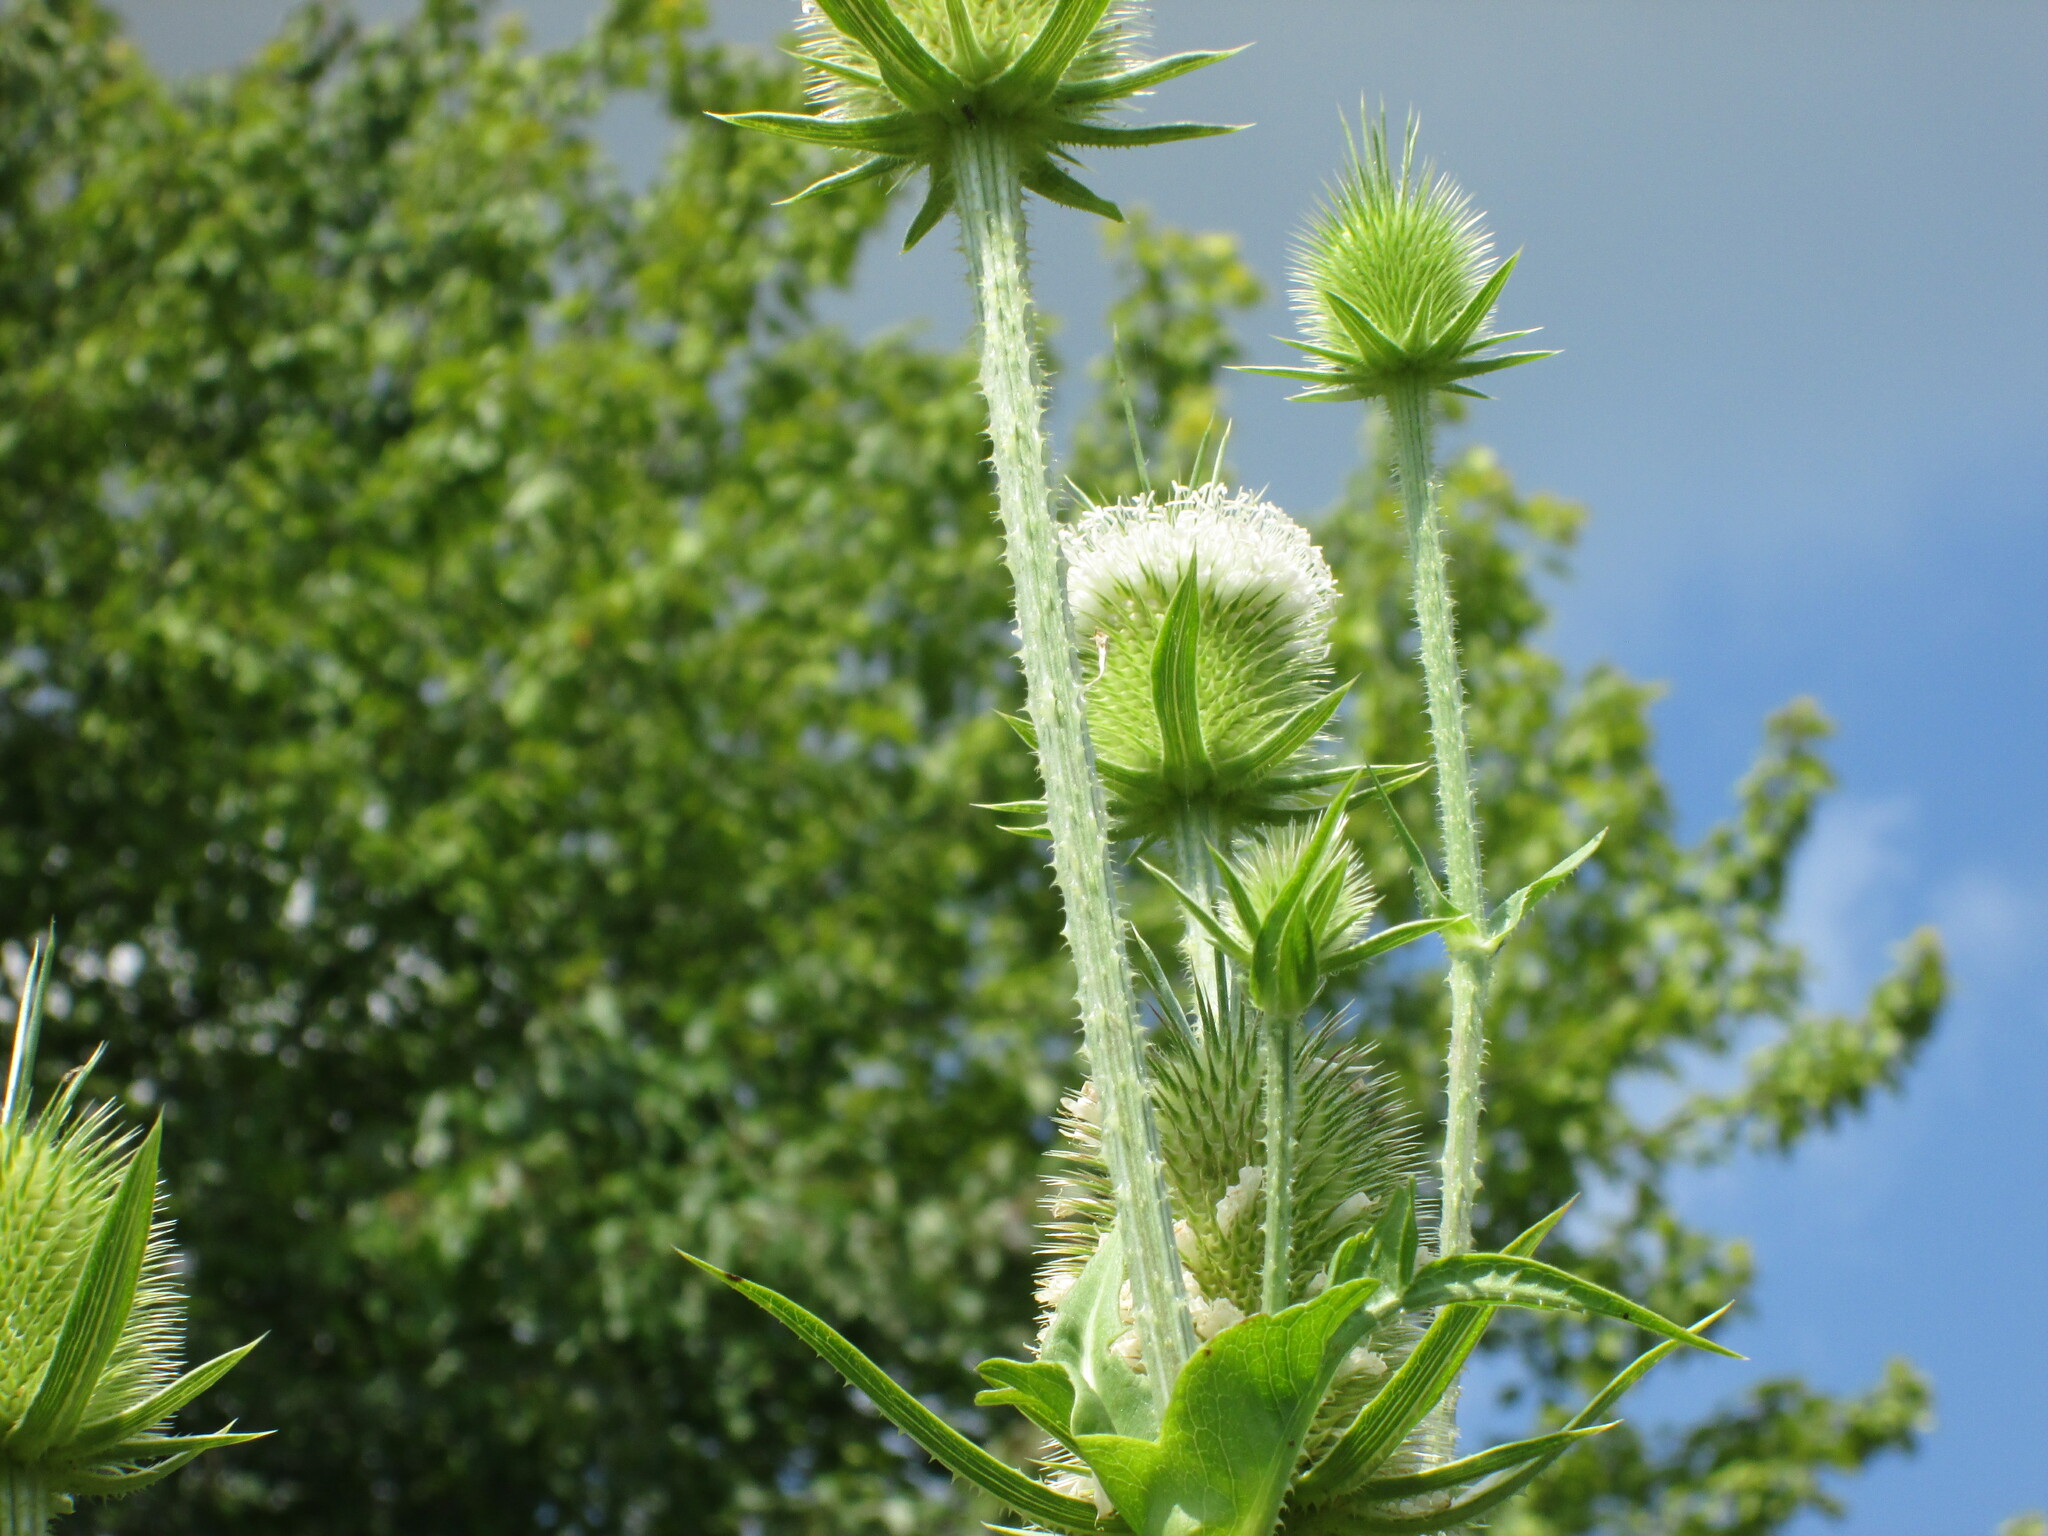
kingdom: Plantae
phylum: Tracheophyta
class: Magnoliopsida
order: Dipsacales
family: Caprifoliaceae
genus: Dipsacus
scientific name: Dipsacus laciniatus
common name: Cut-leaved teasel
